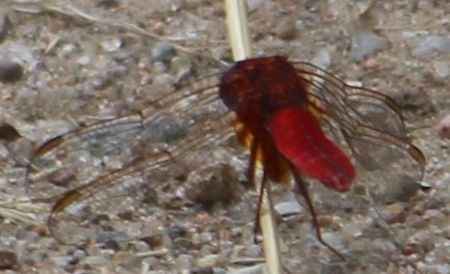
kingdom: Animalia
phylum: Arthropoda
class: Insecta
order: Odonata
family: Libellulidae
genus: Crocothemis
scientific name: Crocothemis erythraea
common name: Scarlet dragonfly
